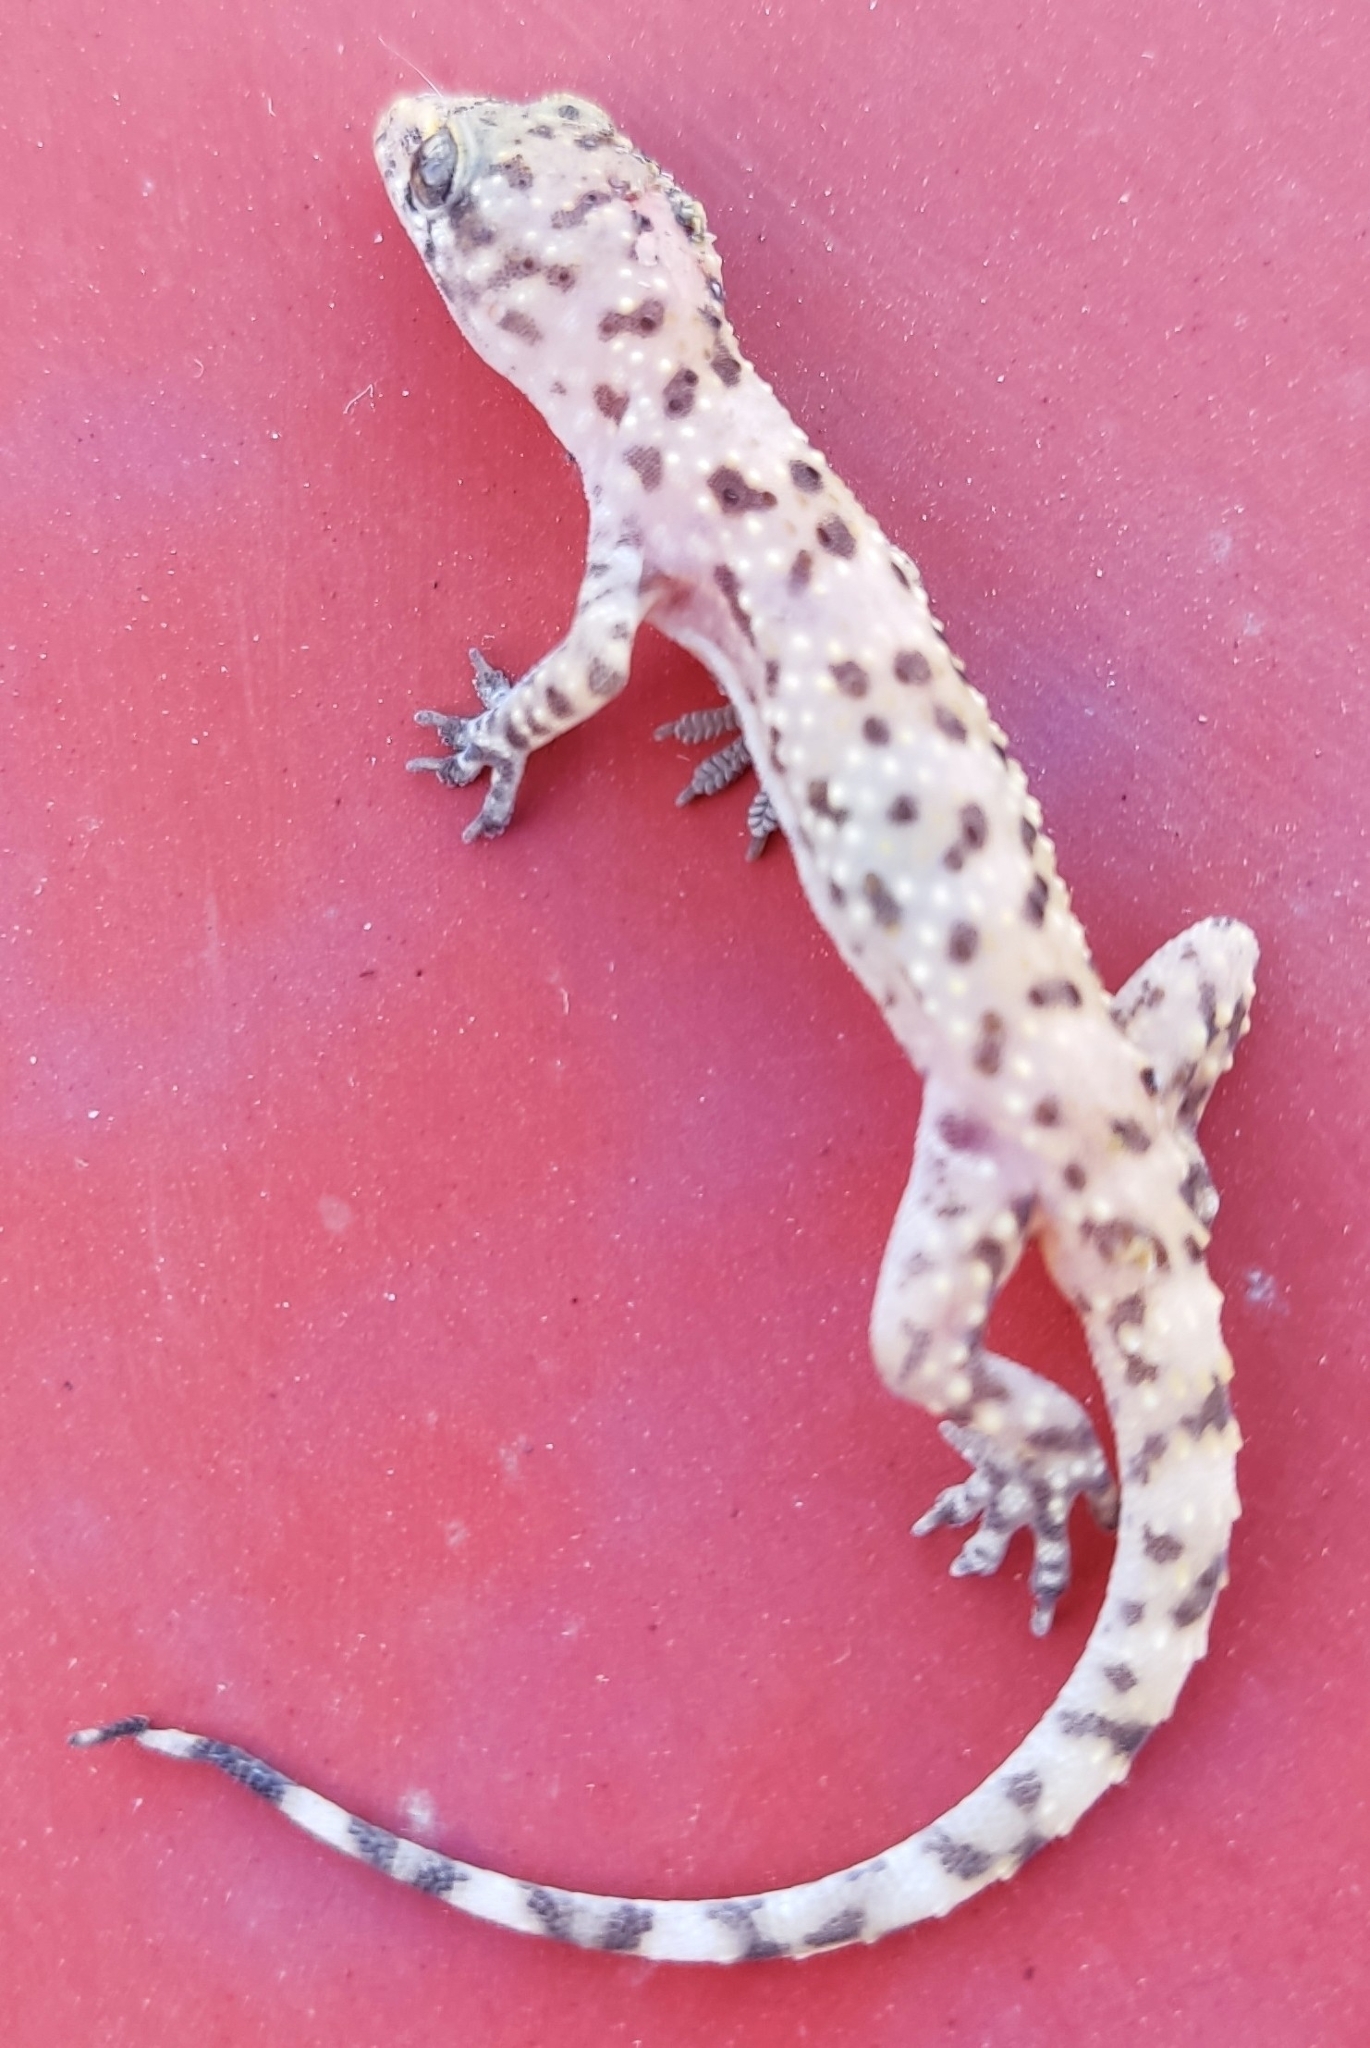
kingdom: Animalia
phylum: Chordata
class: Squamata
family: Gekkonidae
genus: Hemidactylus
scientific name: Hemidactylus turcicus
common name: Turkish gecko
